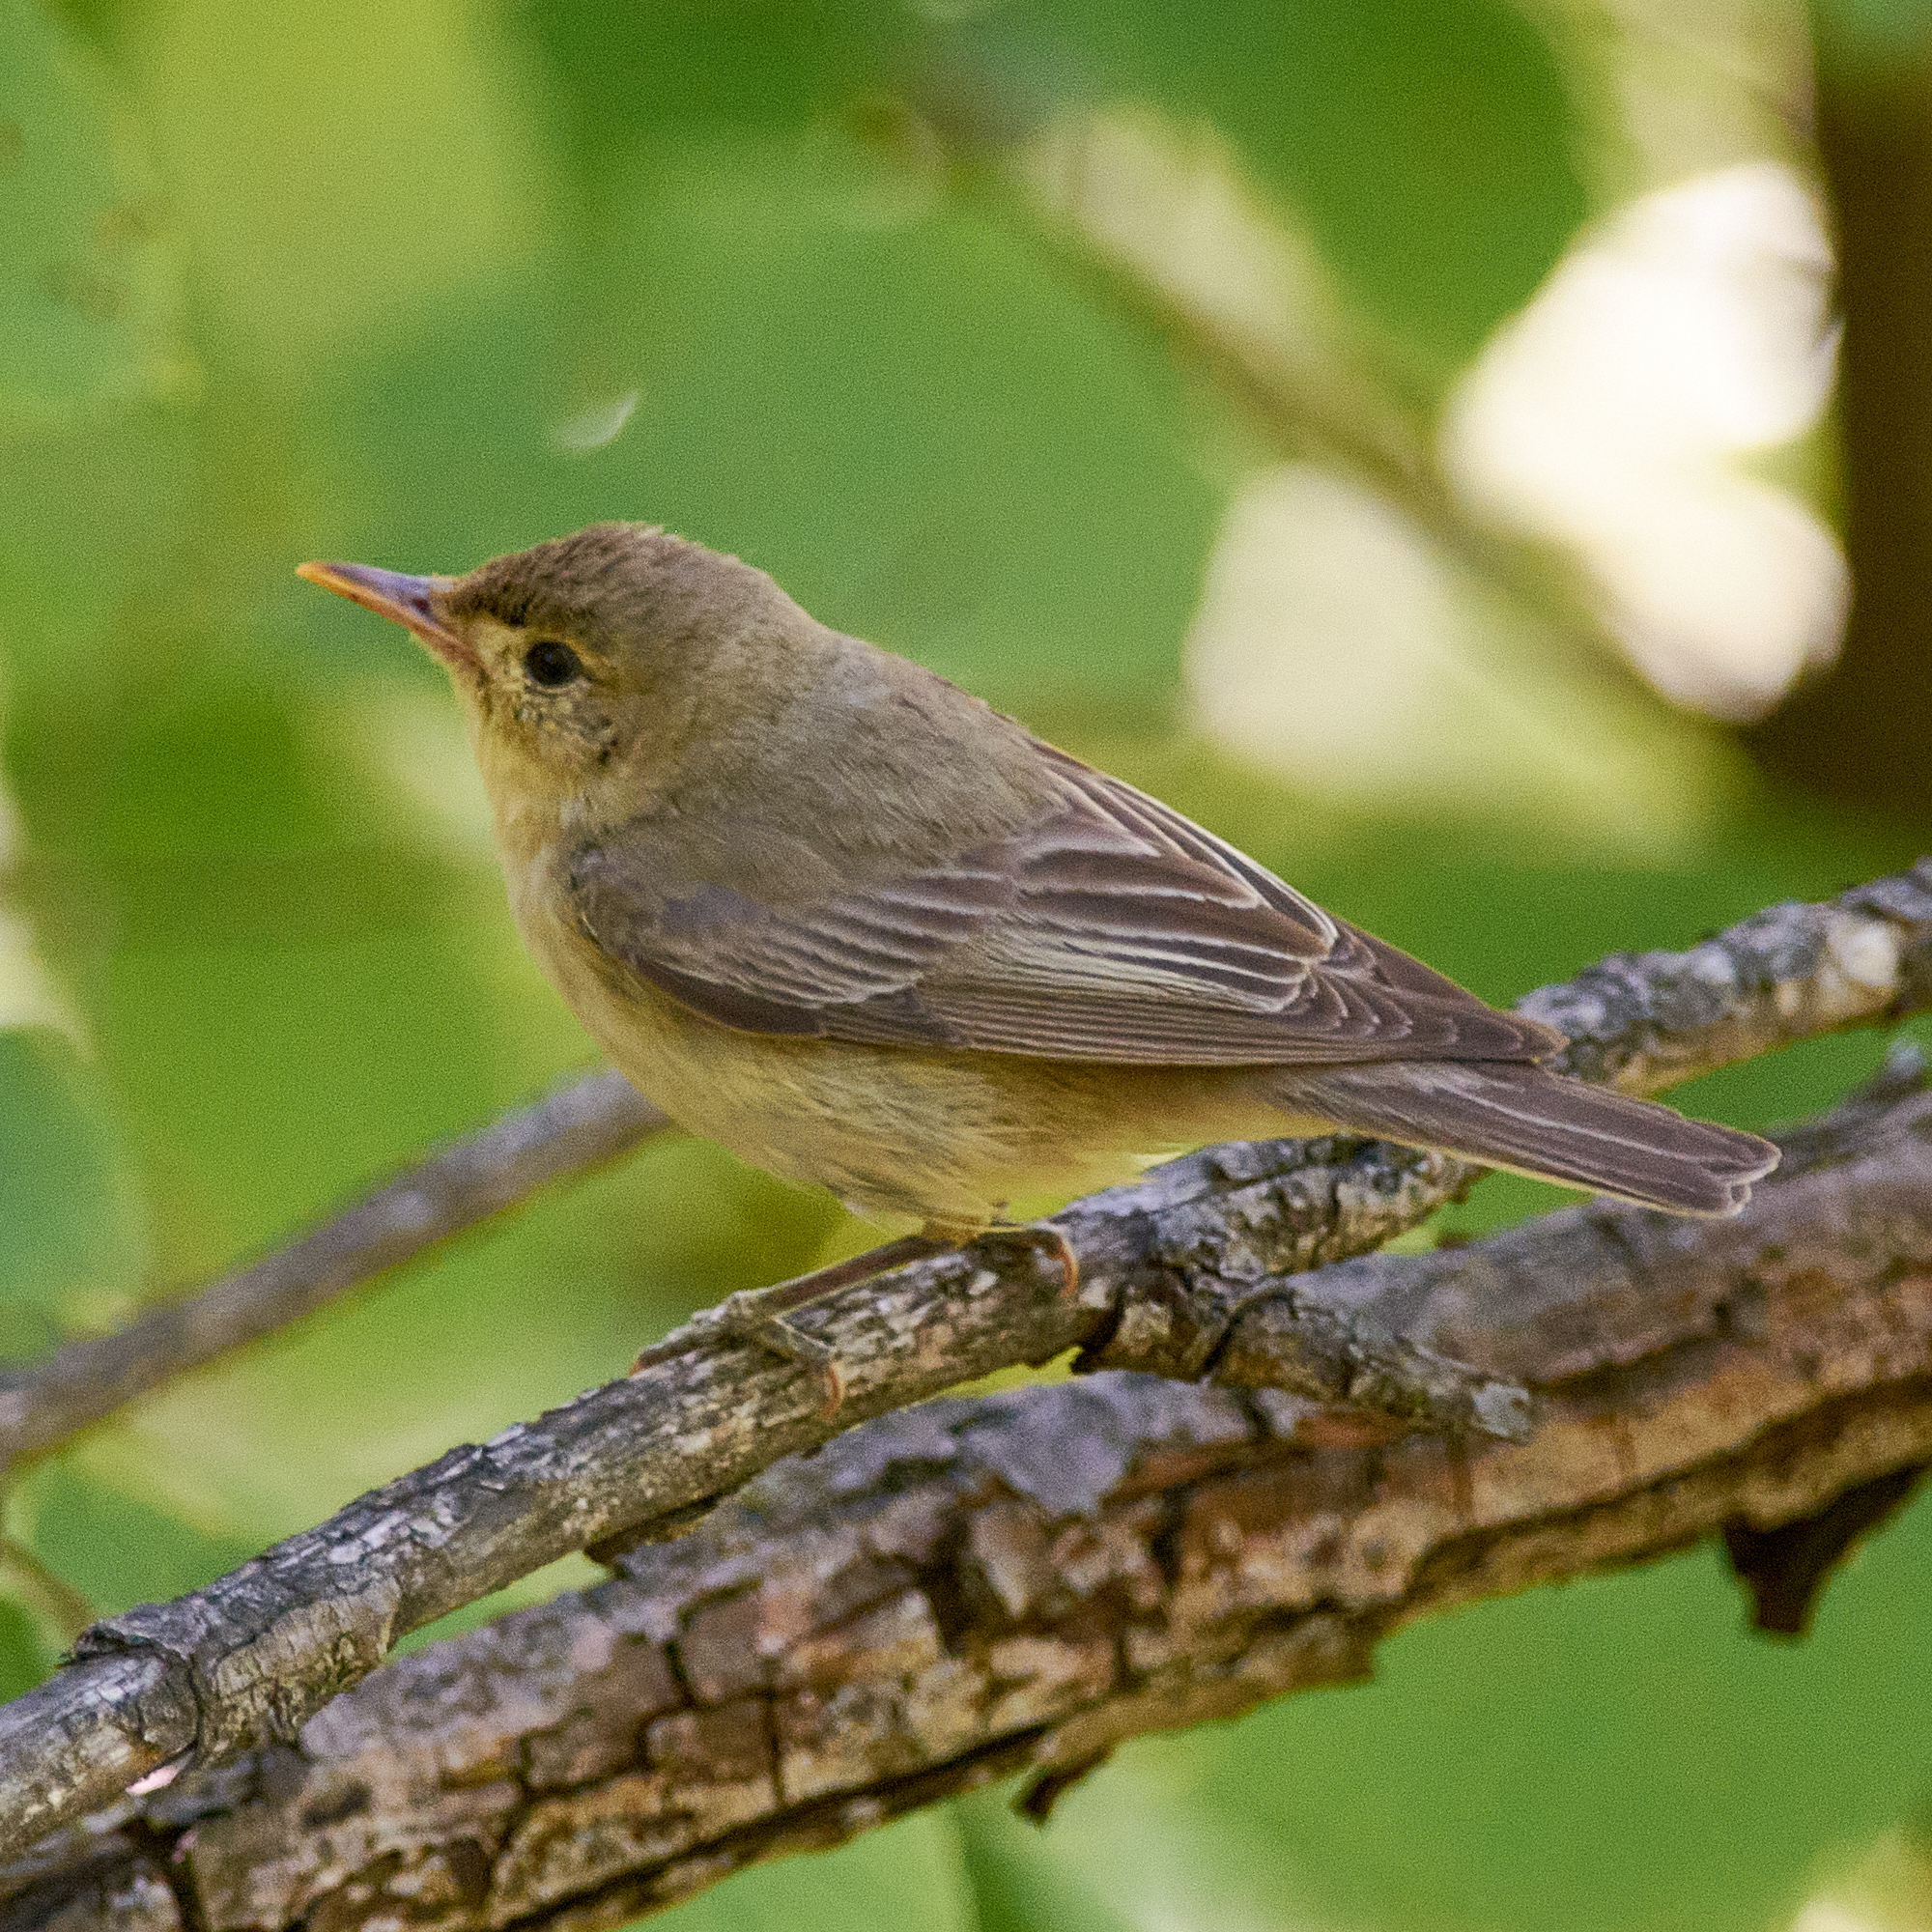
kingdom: Animalia
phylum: Chordata
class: Aves
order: Passeriformes
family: Acrocephalidae
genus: Hippolais
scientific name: Hippolais icterina
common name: Icterine warbler
